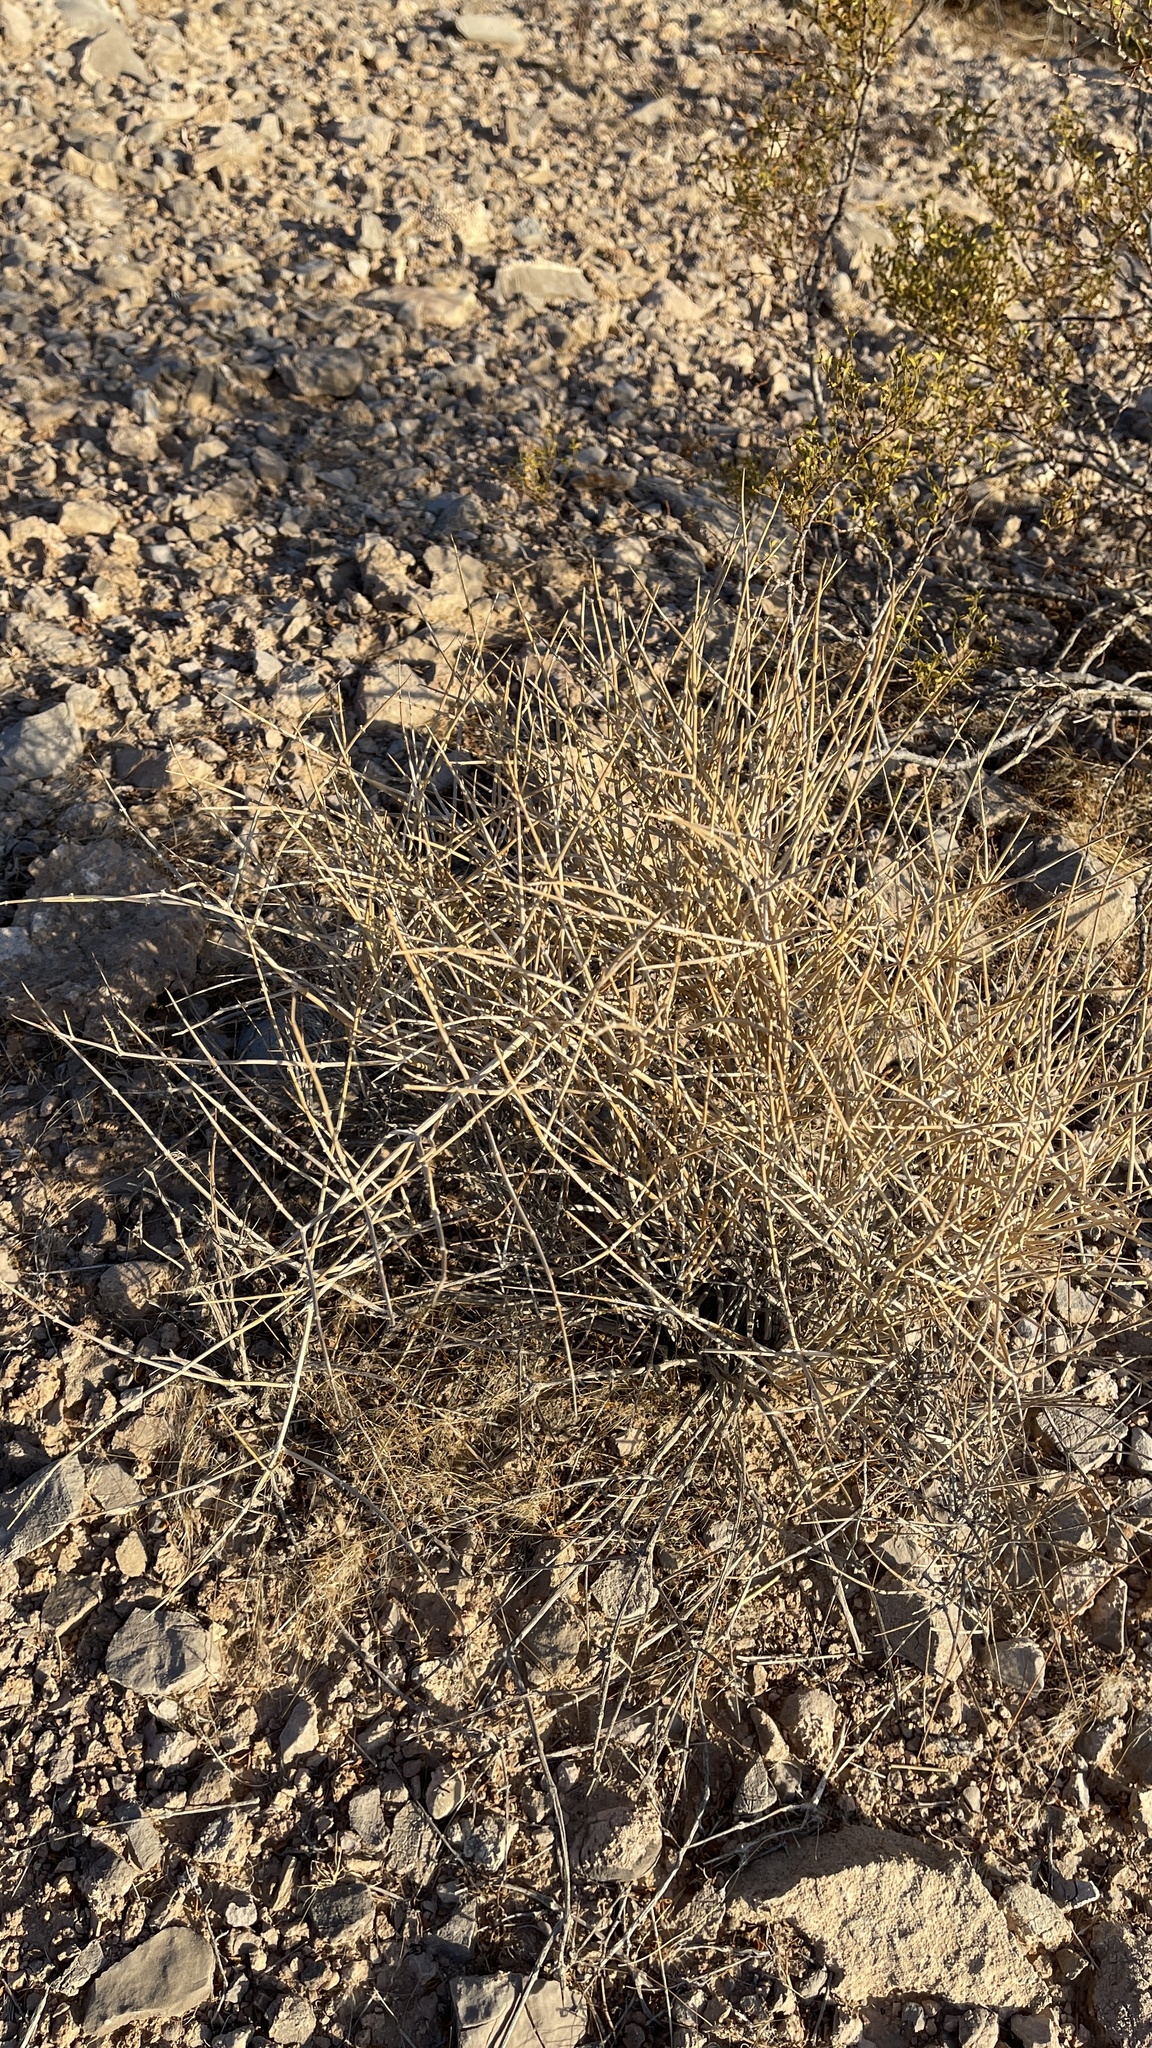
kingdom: Plantae
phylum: Tracheophyta
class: Gnetopsida
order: Ephedrales
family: Ephedraceae
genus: Ephedra
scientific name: Ephedra nevadensis
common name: Gray ephedra
